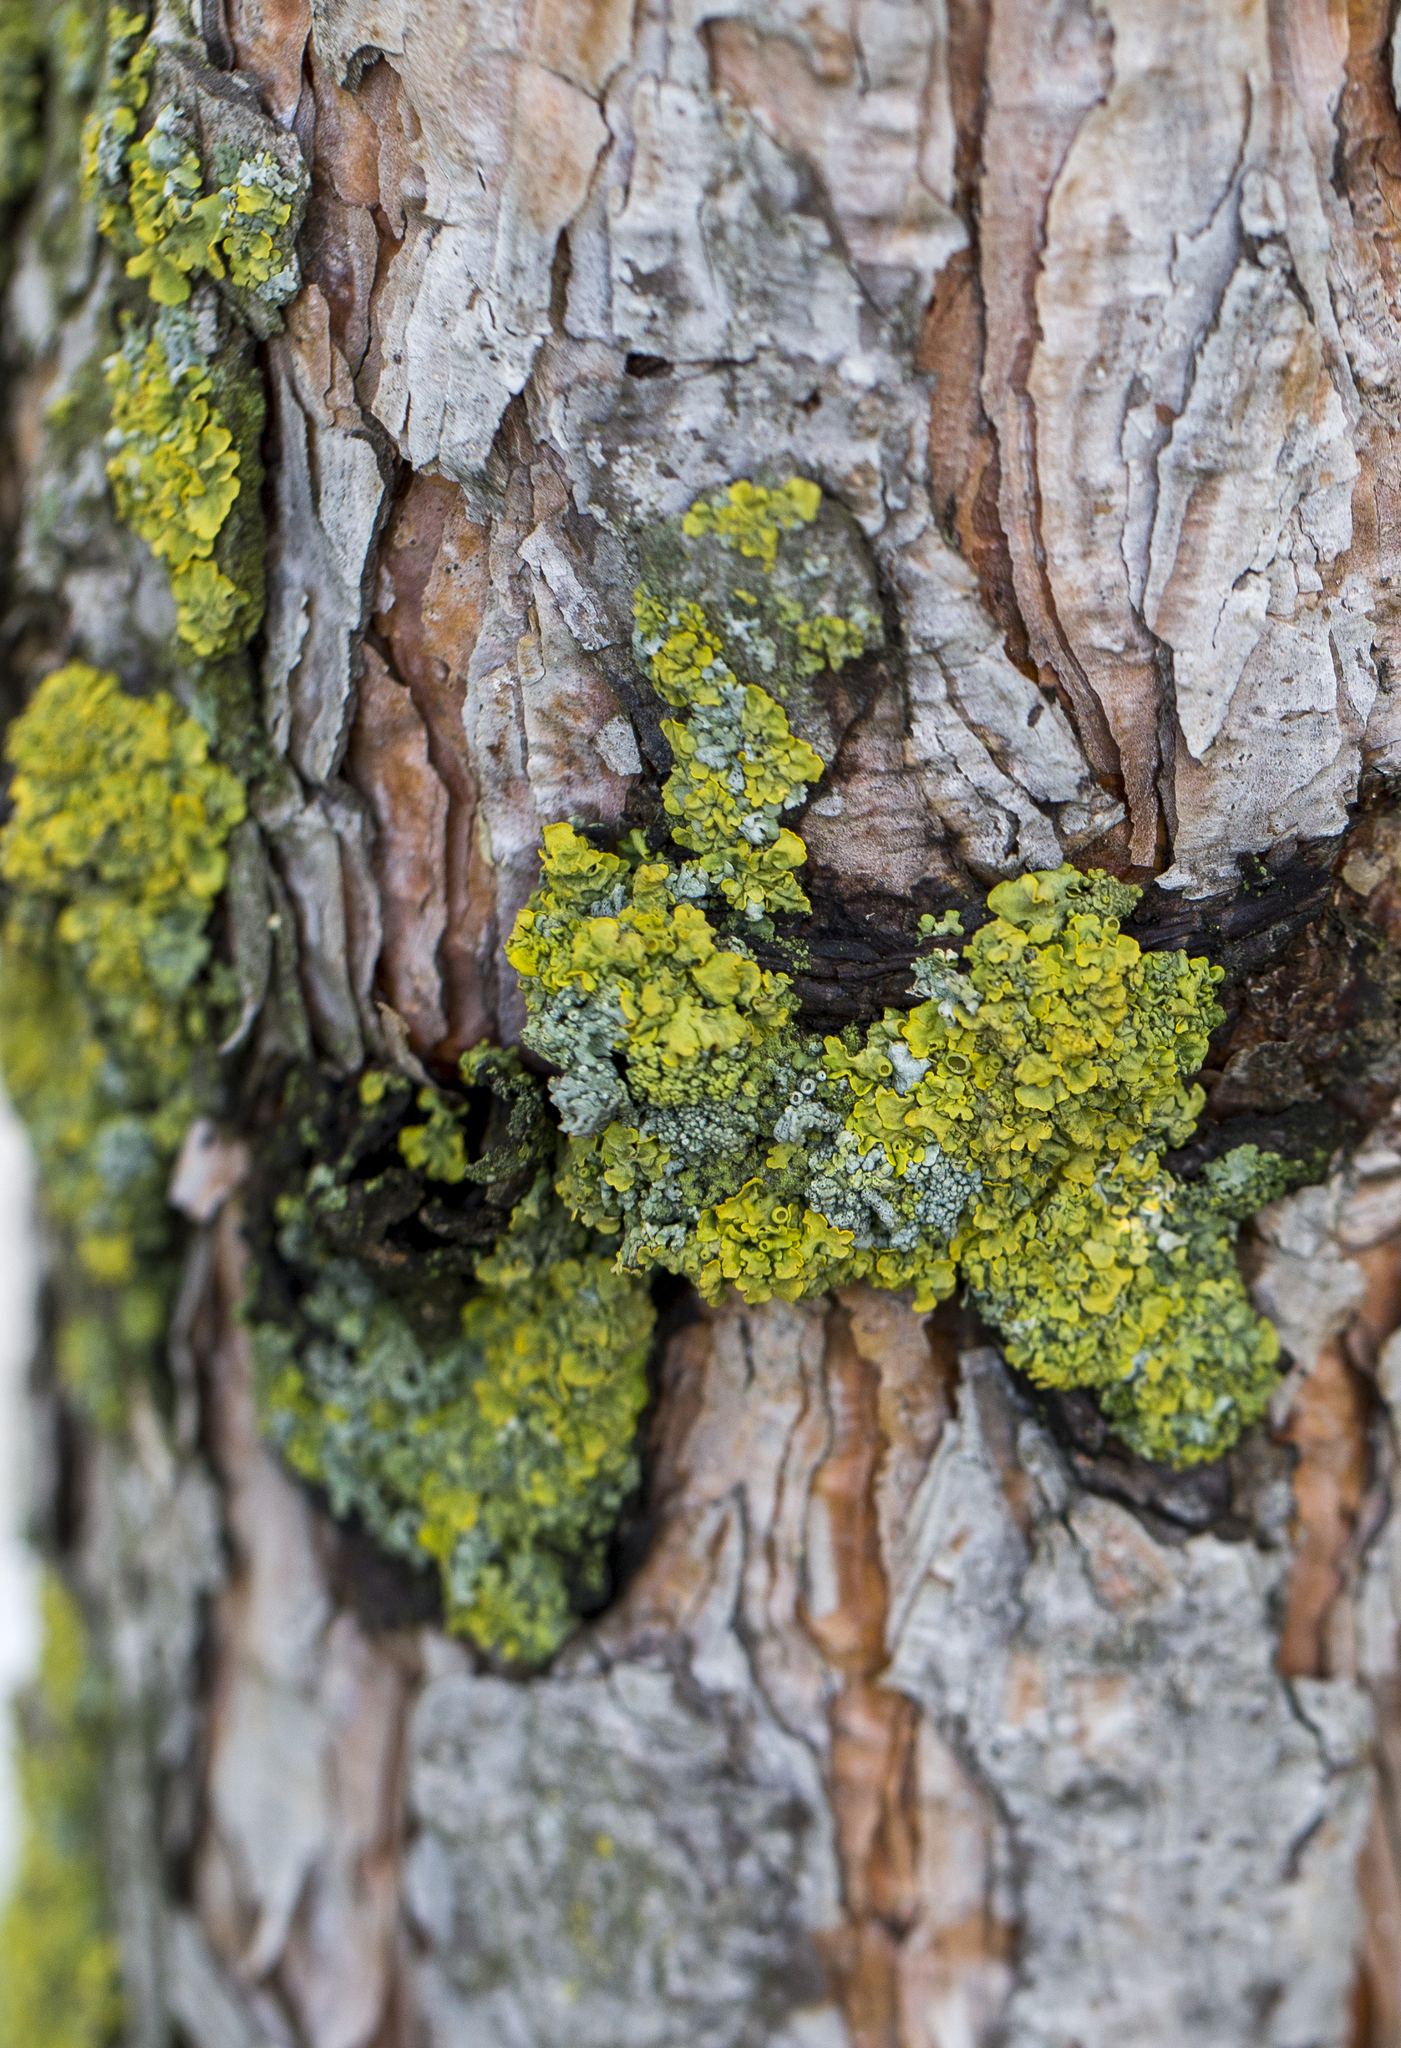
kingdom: Fungi
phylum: Ascomycota
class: Lecanoromycetes
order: Teloschistales
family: Teloschistaceae
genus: Xanthoria
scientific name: Xanthoria parietina
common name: Common orange lichen
